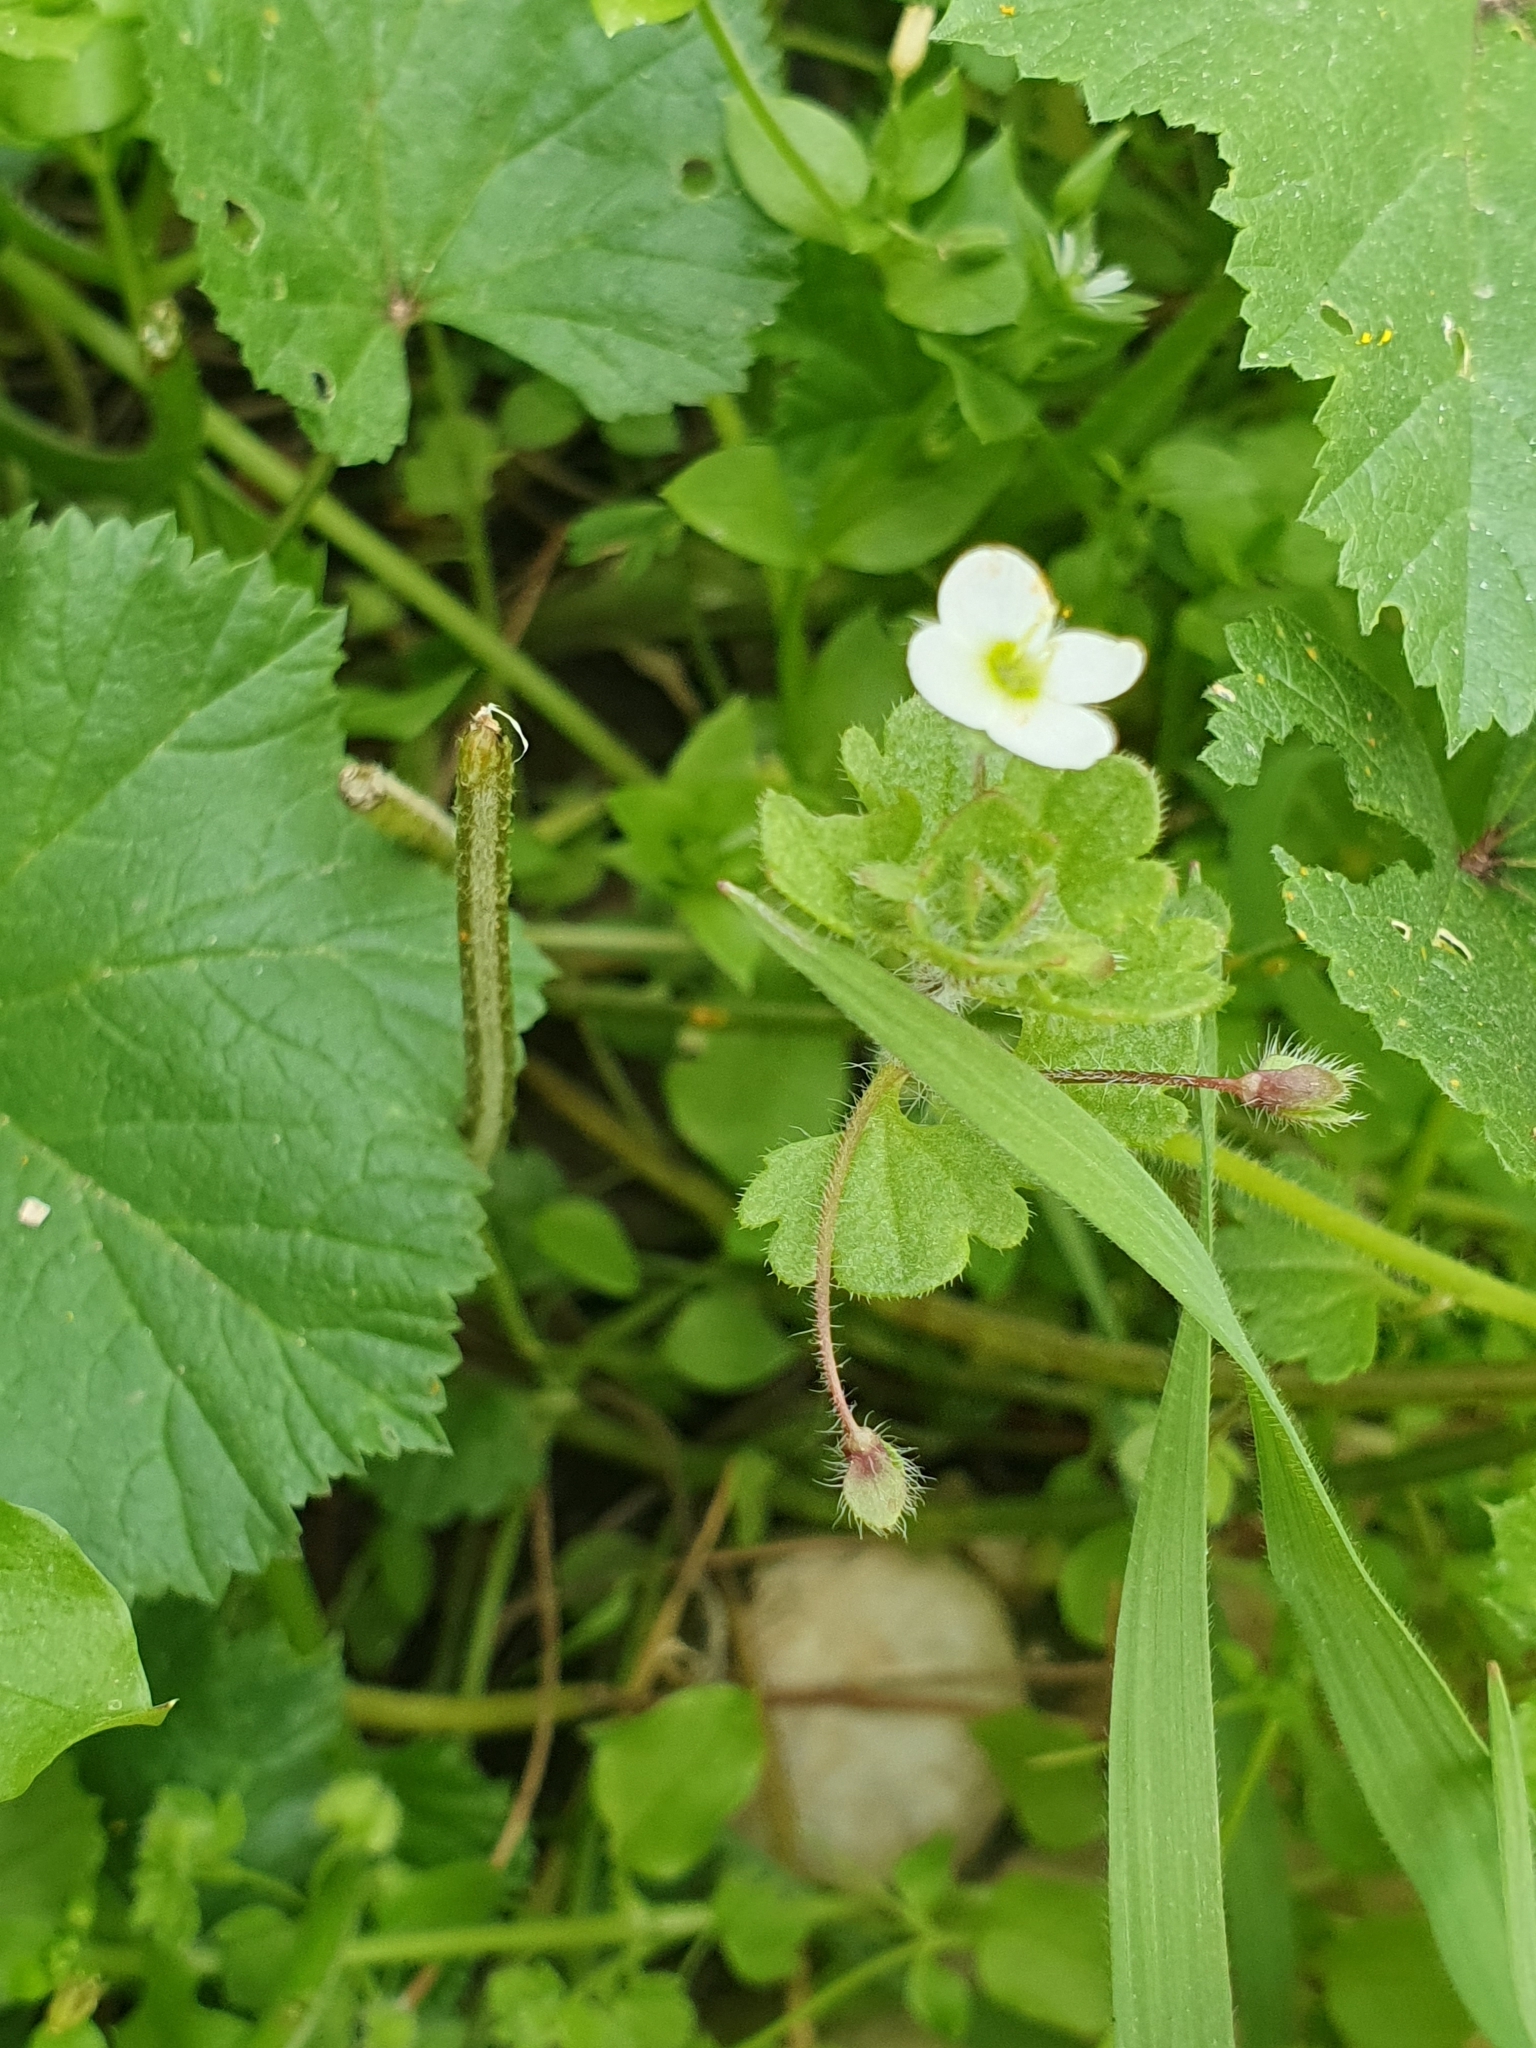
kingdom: Plantae
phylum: Tracheophyta
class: Magnoliopsida
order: Lamiales
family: Plantaginaceae
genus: Veronica
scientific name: Veronica cymbalaria
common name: Pale speedwell
